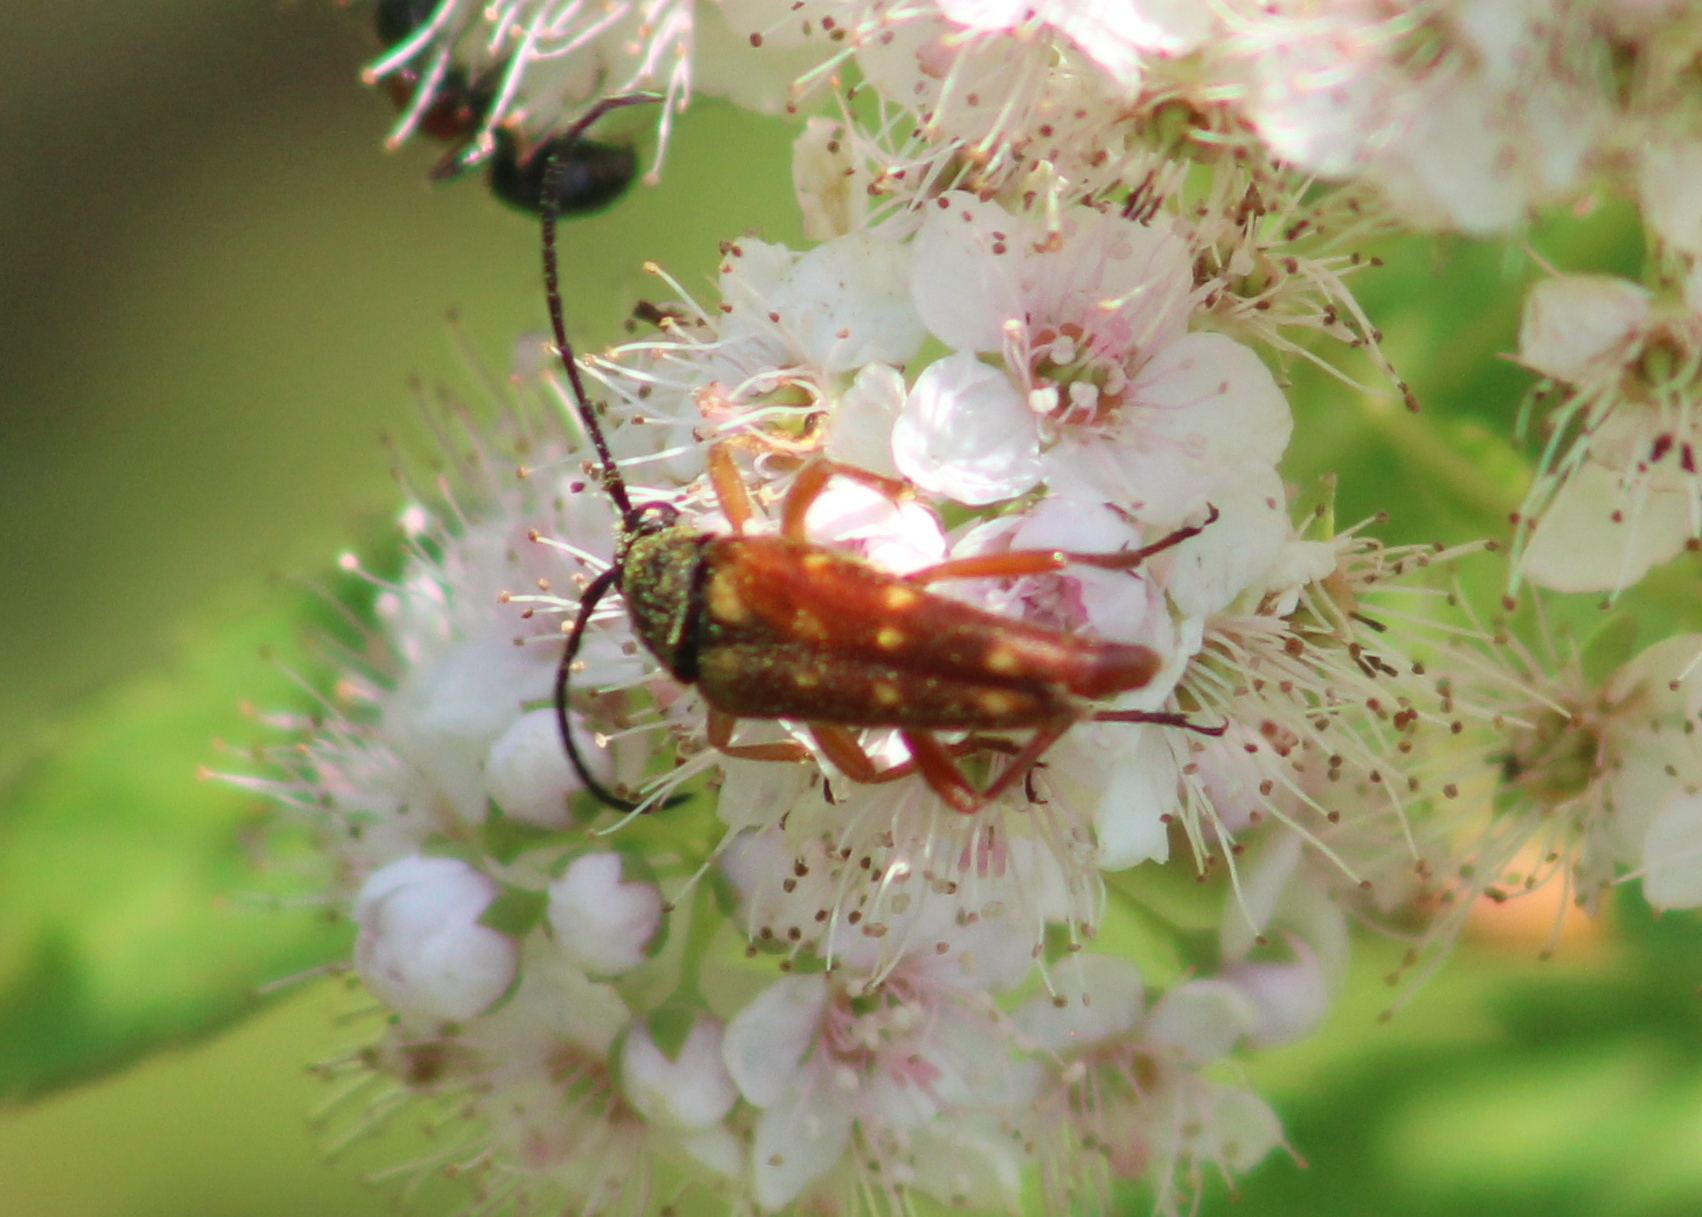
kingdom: Animalia
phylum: Arthropoda
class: Insecta
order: Coleoptera
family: Cerambycidae
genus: Typocerus
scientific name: Typocerus velutinus
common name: Banded longhorn beetle
